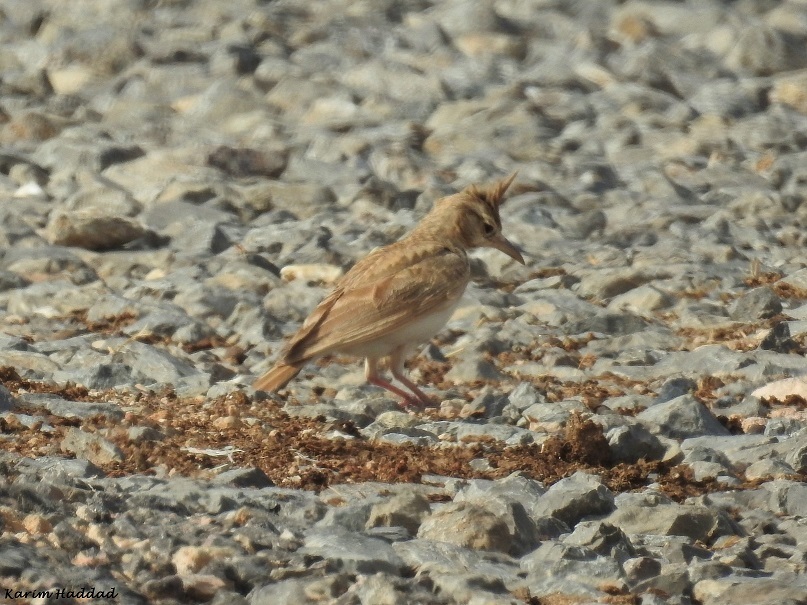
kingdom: Animalia
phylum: Chordata
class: Aves
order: Passeriformes
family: Alaudidae
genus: Galerida
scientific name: Galerida cristata
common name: Crested lark
